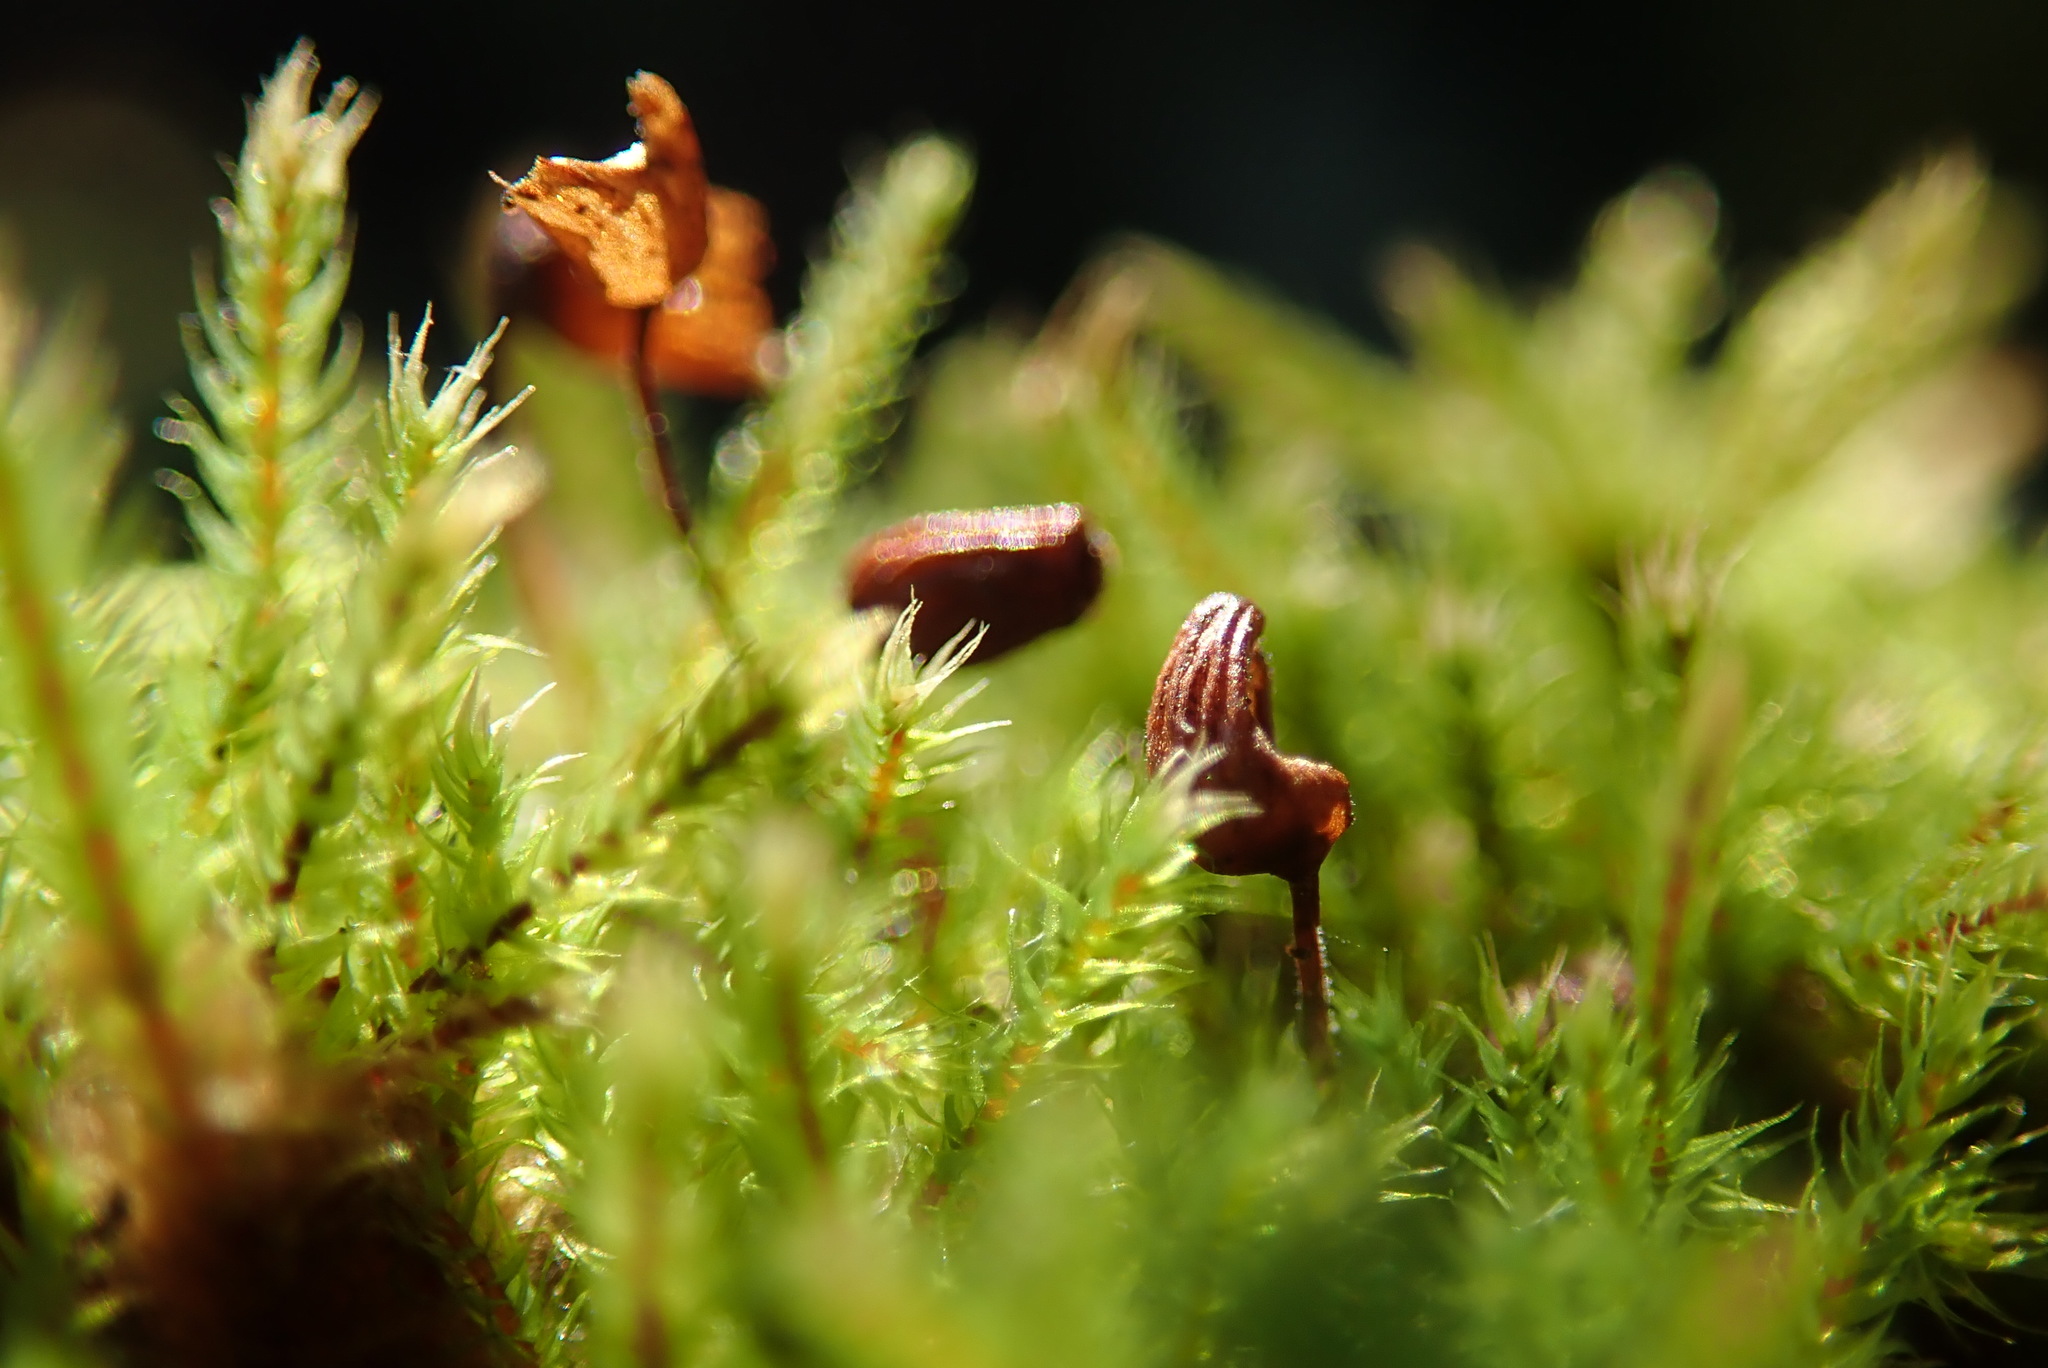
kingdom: Plantae
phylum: Bryophyta
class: Bryopsida
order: Bartramiales
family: Bartramiaceae
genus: Philonotis
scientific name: Philonotis fontana
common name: Fountain apple-moss
